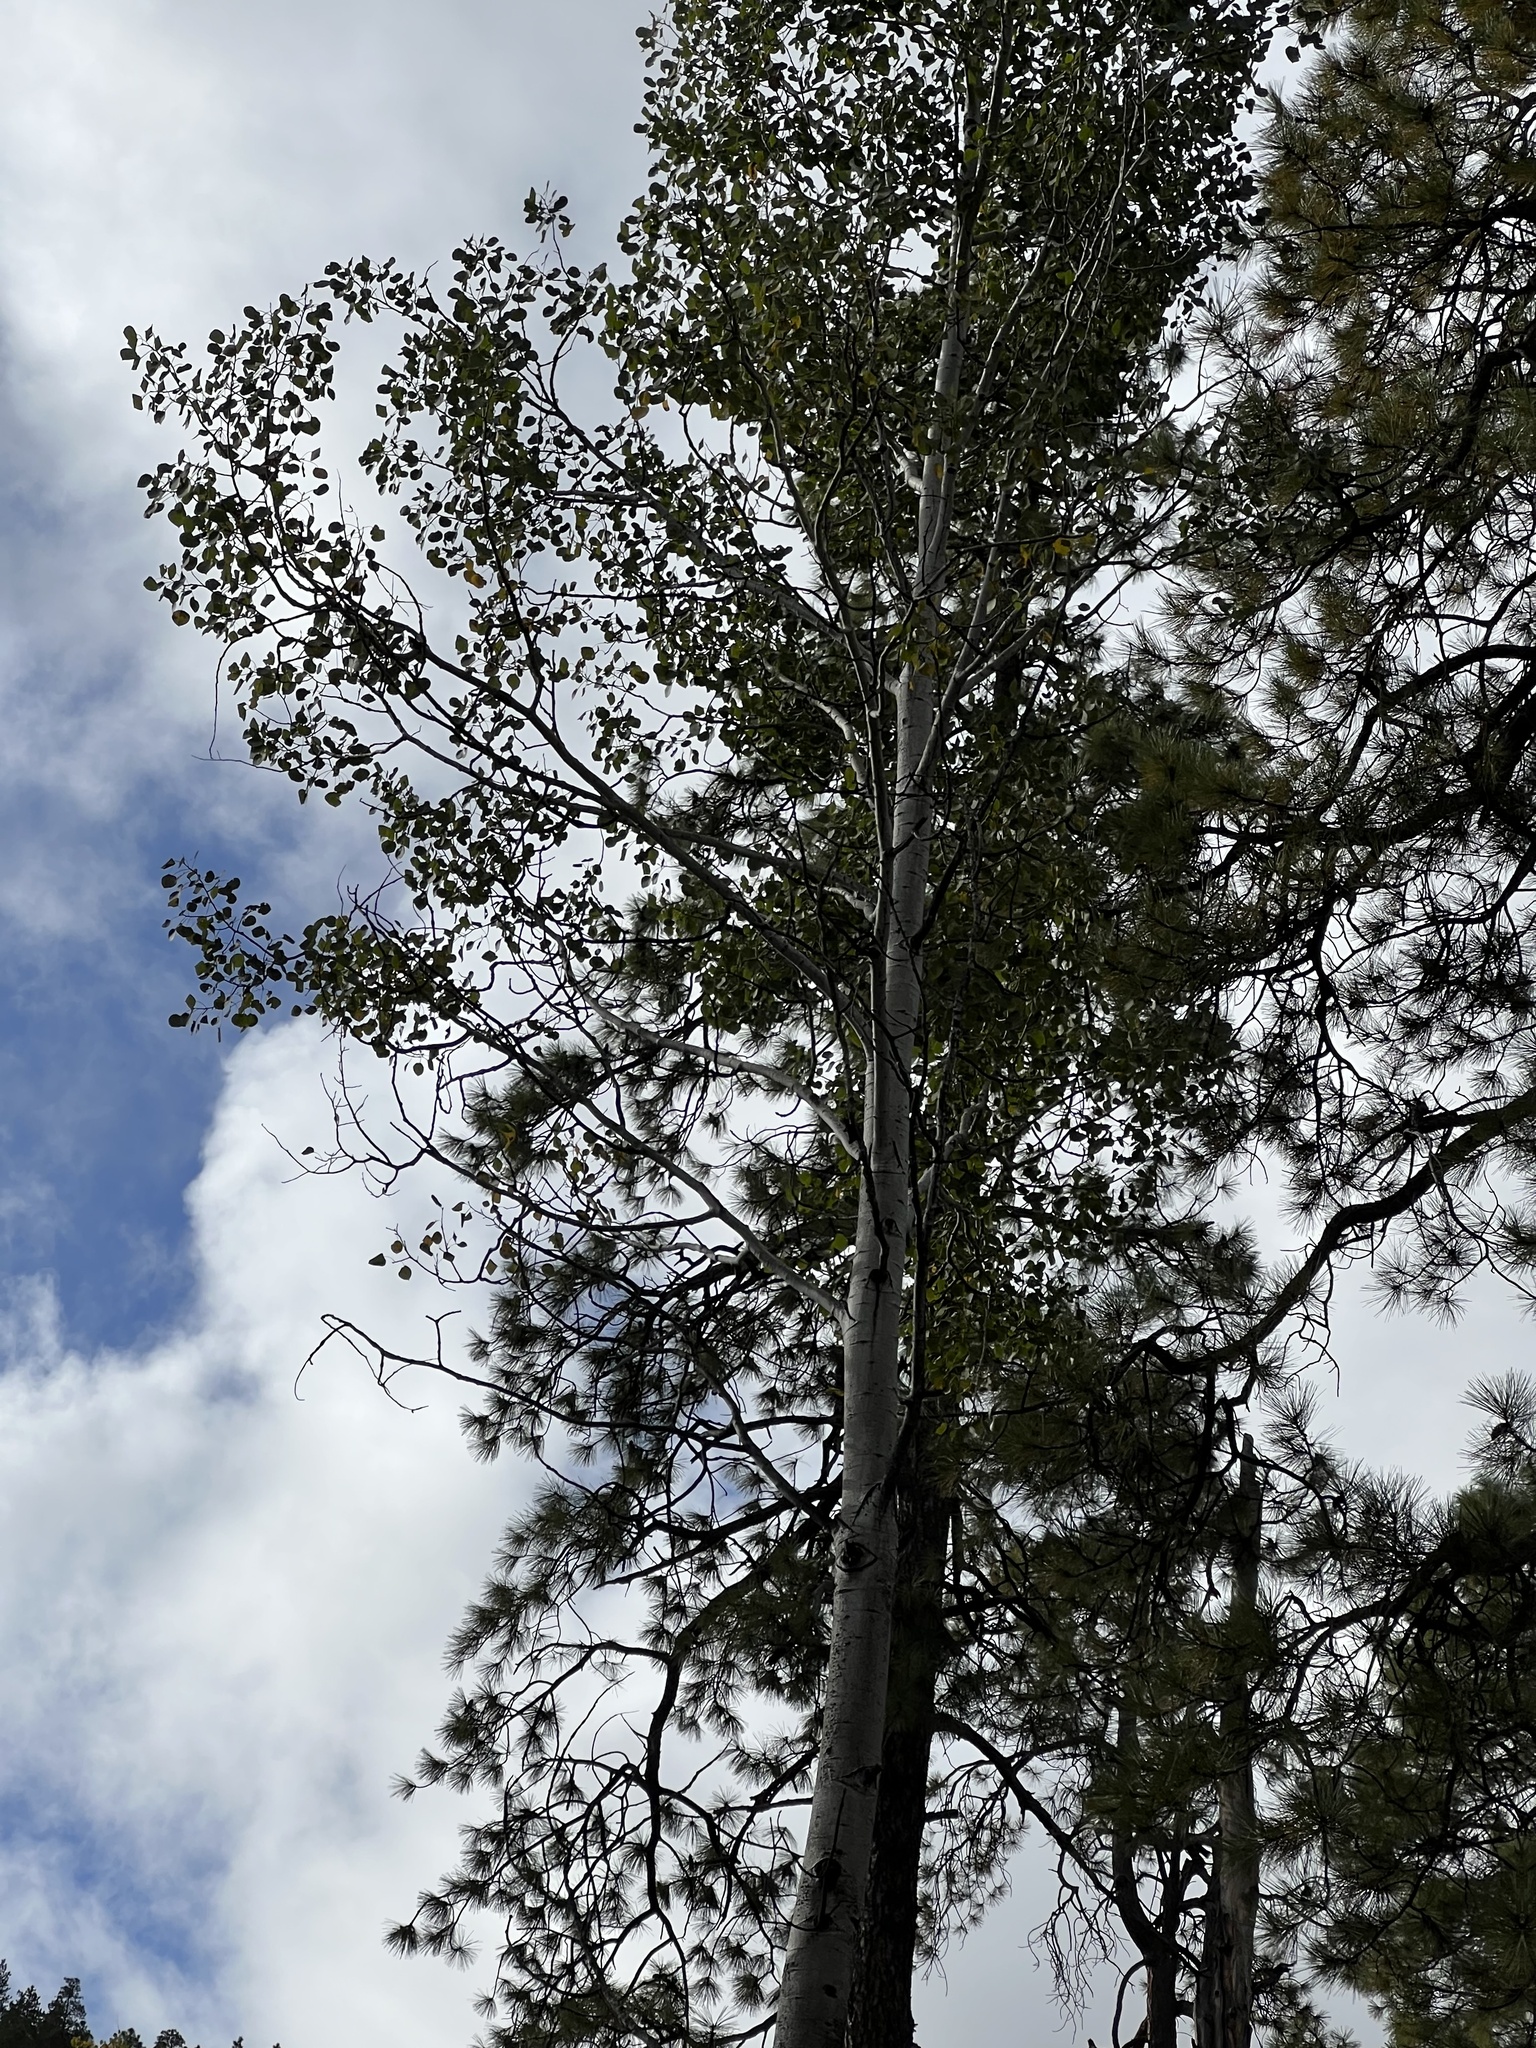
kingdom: Plantae
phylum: Tracheophyta
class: Magnoliopsida
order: Malpighiales
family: Salicaceae
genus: Populus
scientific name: Populus tremuloides
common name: Quaking aspen
